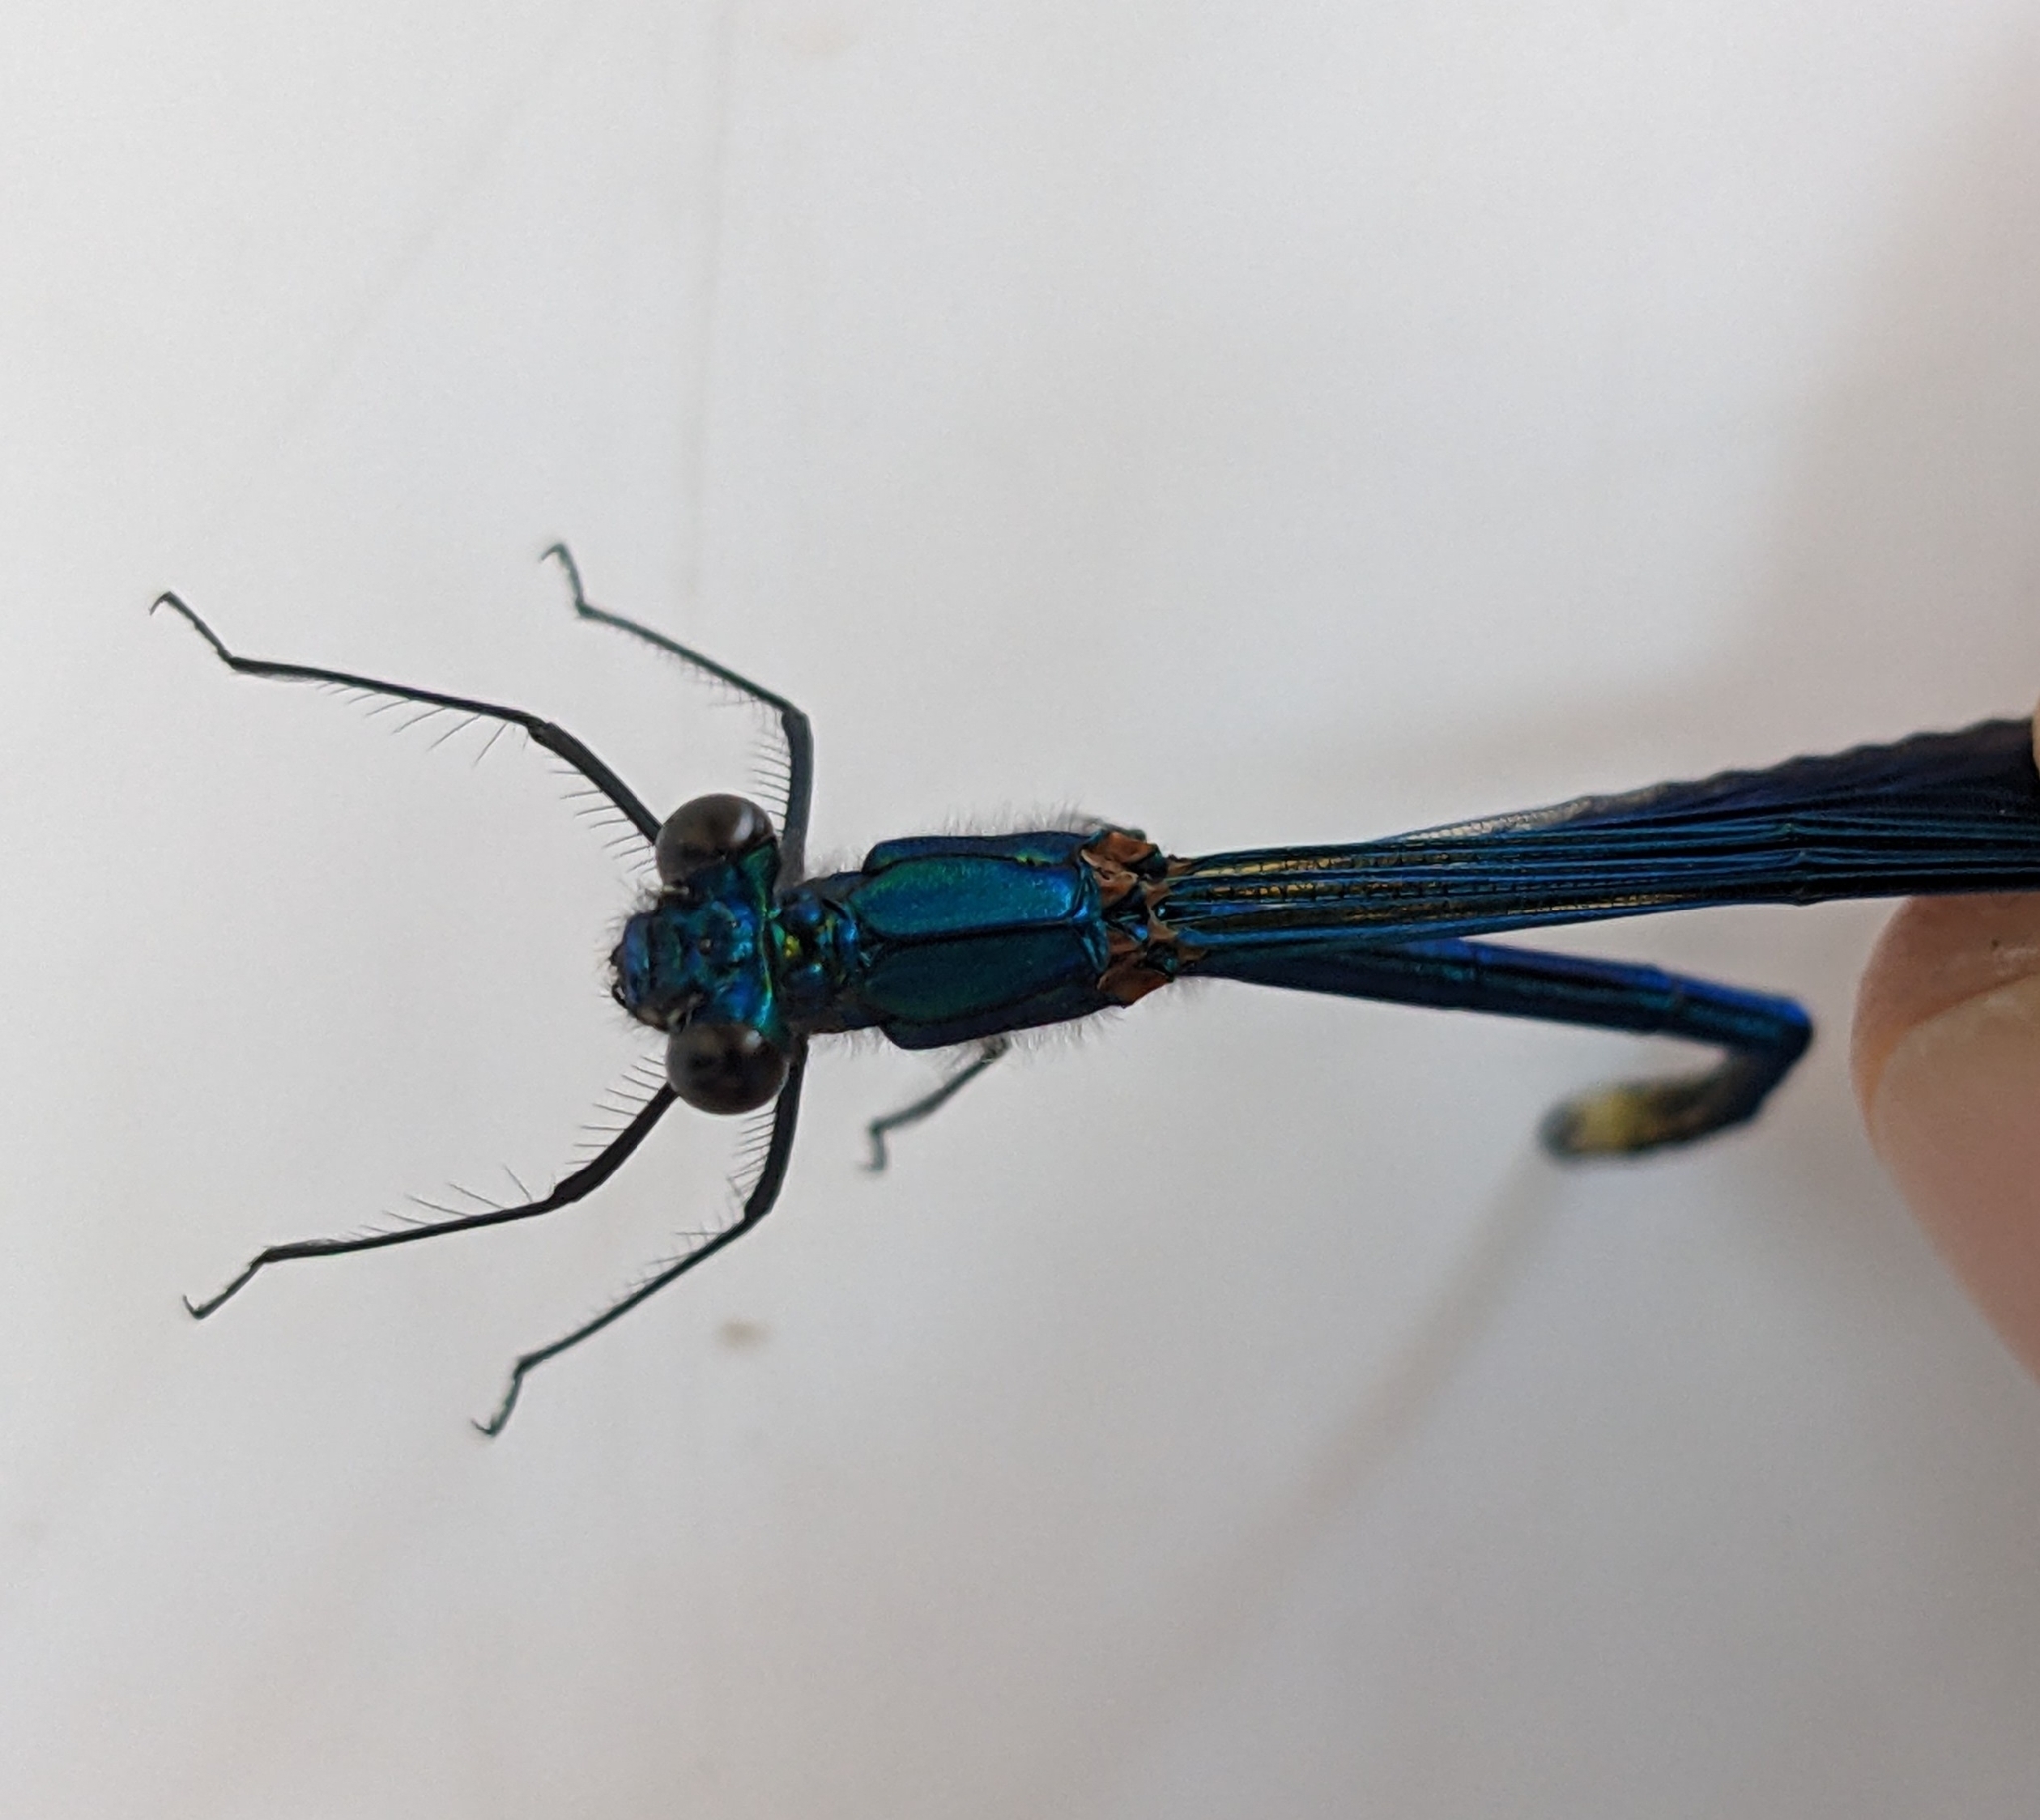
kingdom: Animalia
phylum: Arthropoda
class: Insecta
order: Odonata
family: Calopterygidae
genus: Calopteryx
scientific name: Calopteryx splendens
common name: Banded demoiselle
